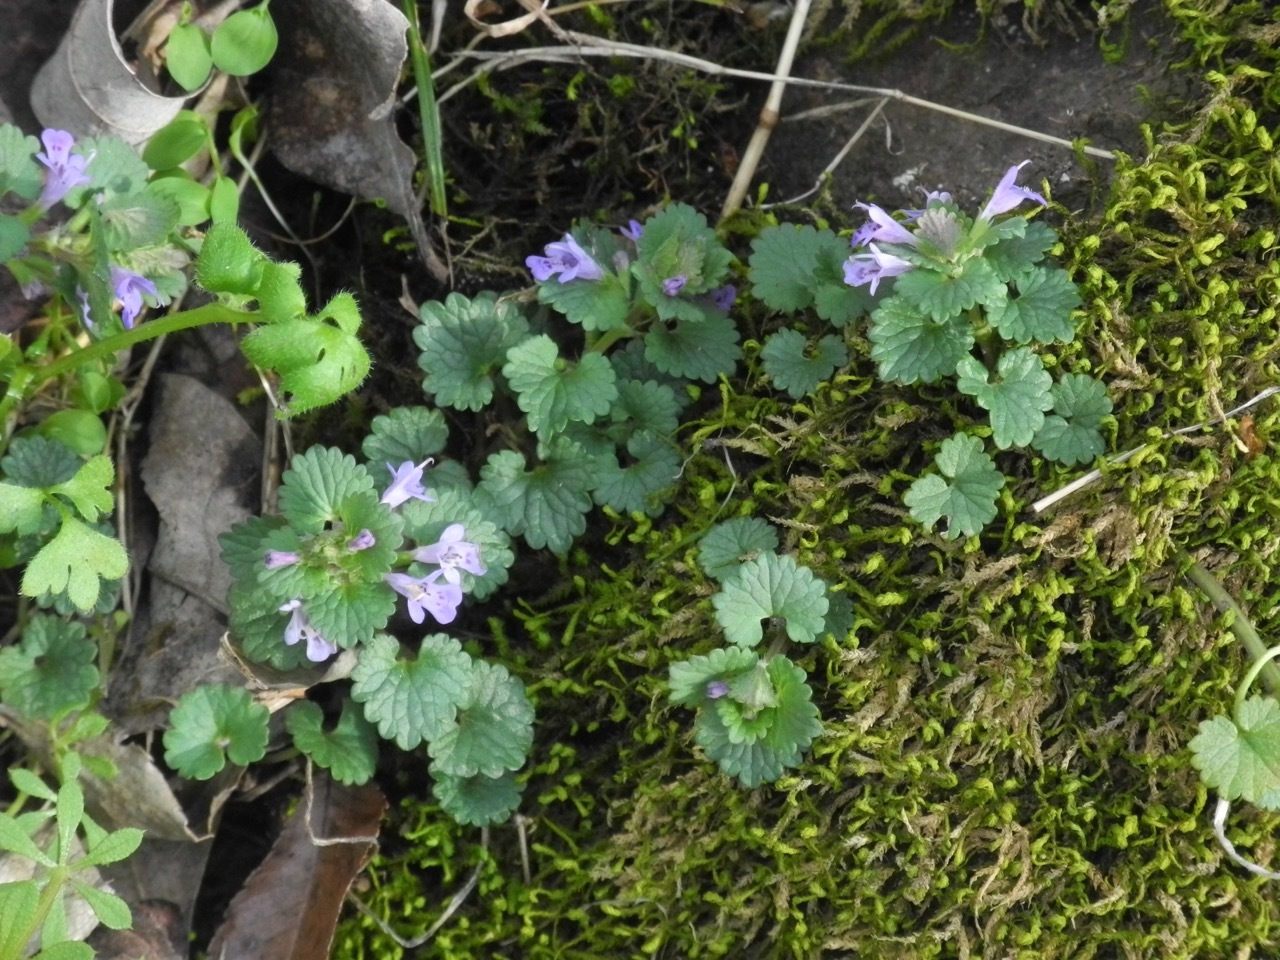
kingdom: Plantae
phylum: Tracheophyta
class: Magnoliopsida
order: Lamiales
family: Lamiaceae
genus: Glechoma
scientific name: Glechoma hederacea
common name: Ground ivy
